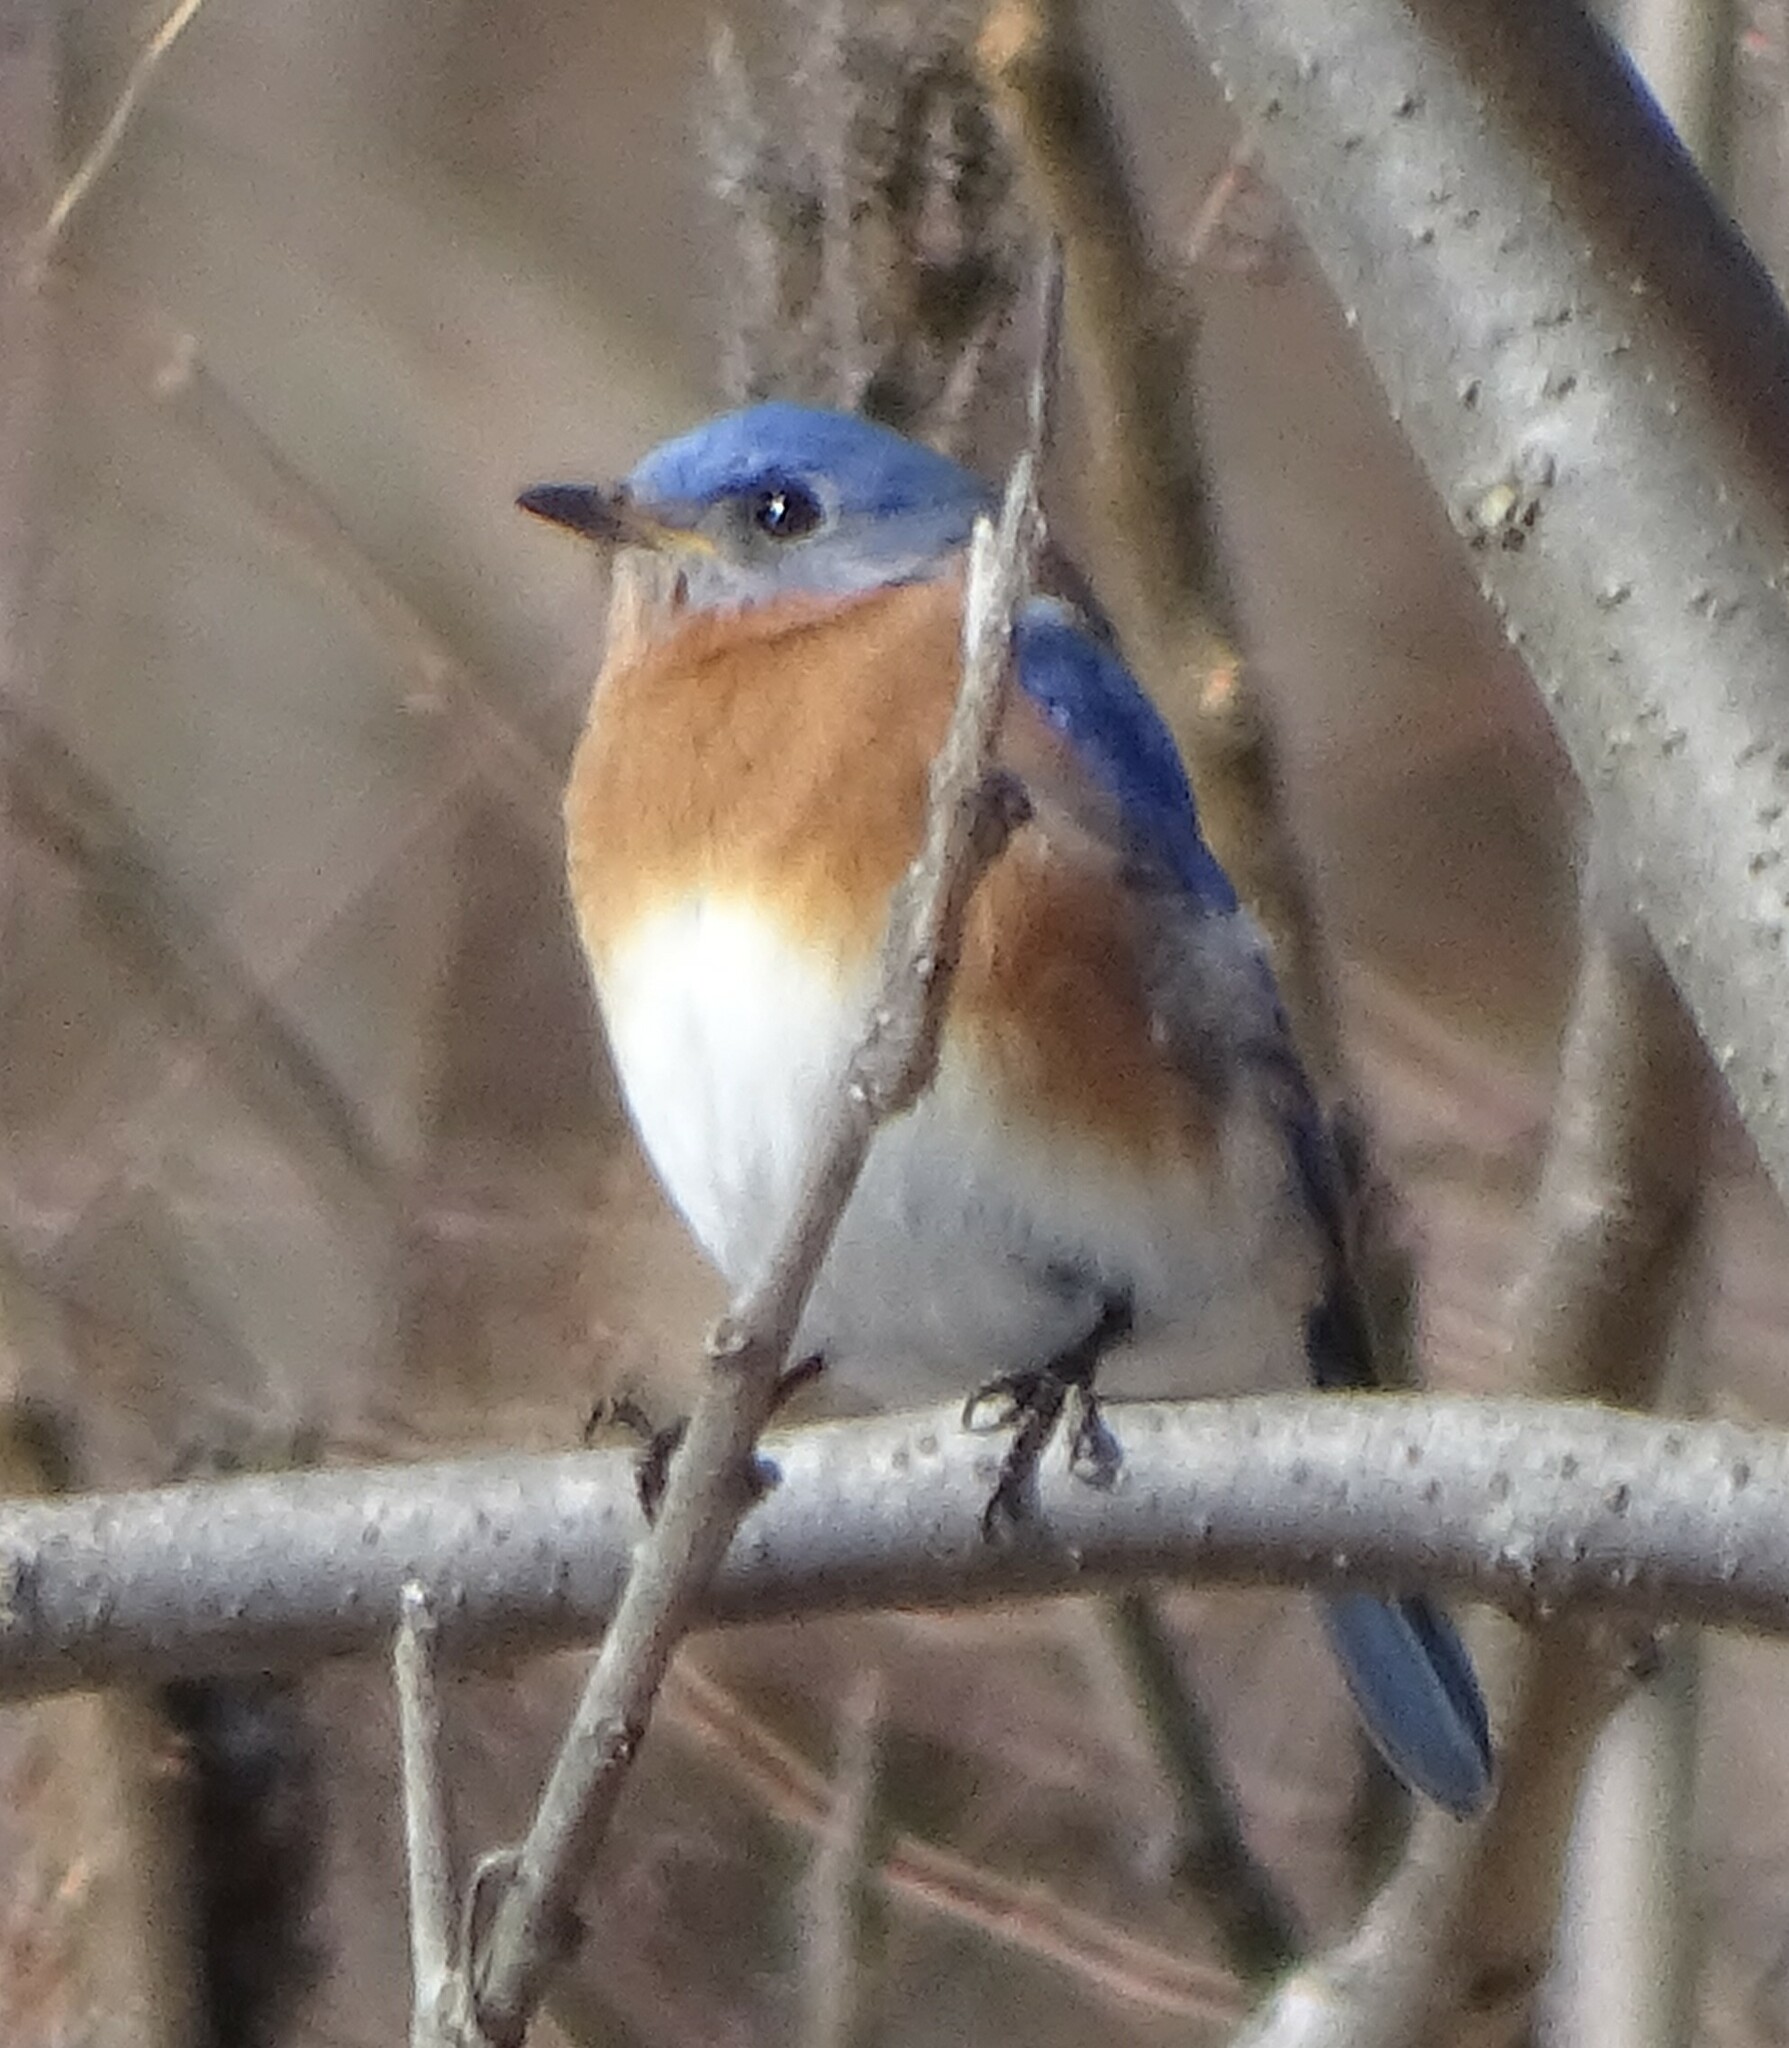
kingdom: Animalia
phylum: Chordata
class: Aves
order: Passeriformes
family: Turdidae
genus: Sialia
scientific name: Sialia sialis
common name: Eastern bluebird
